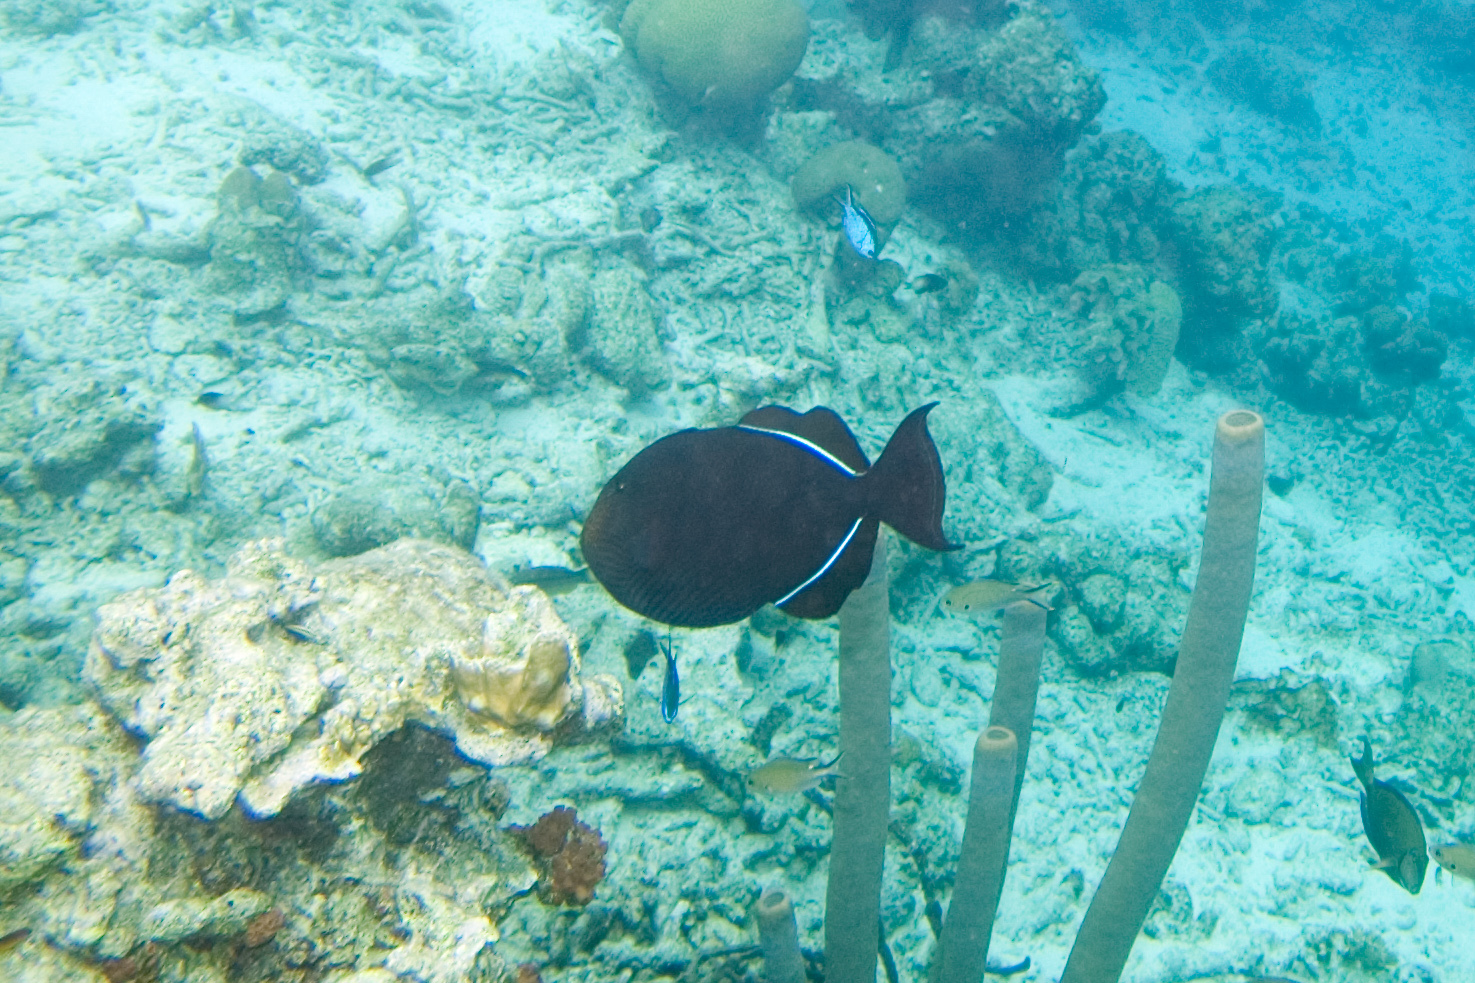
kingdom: Animalia
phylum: Chordata
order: Tetraodontiformes
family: Balistidae
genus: Melichthys
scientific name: Melichthys niger
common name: Black durgon
